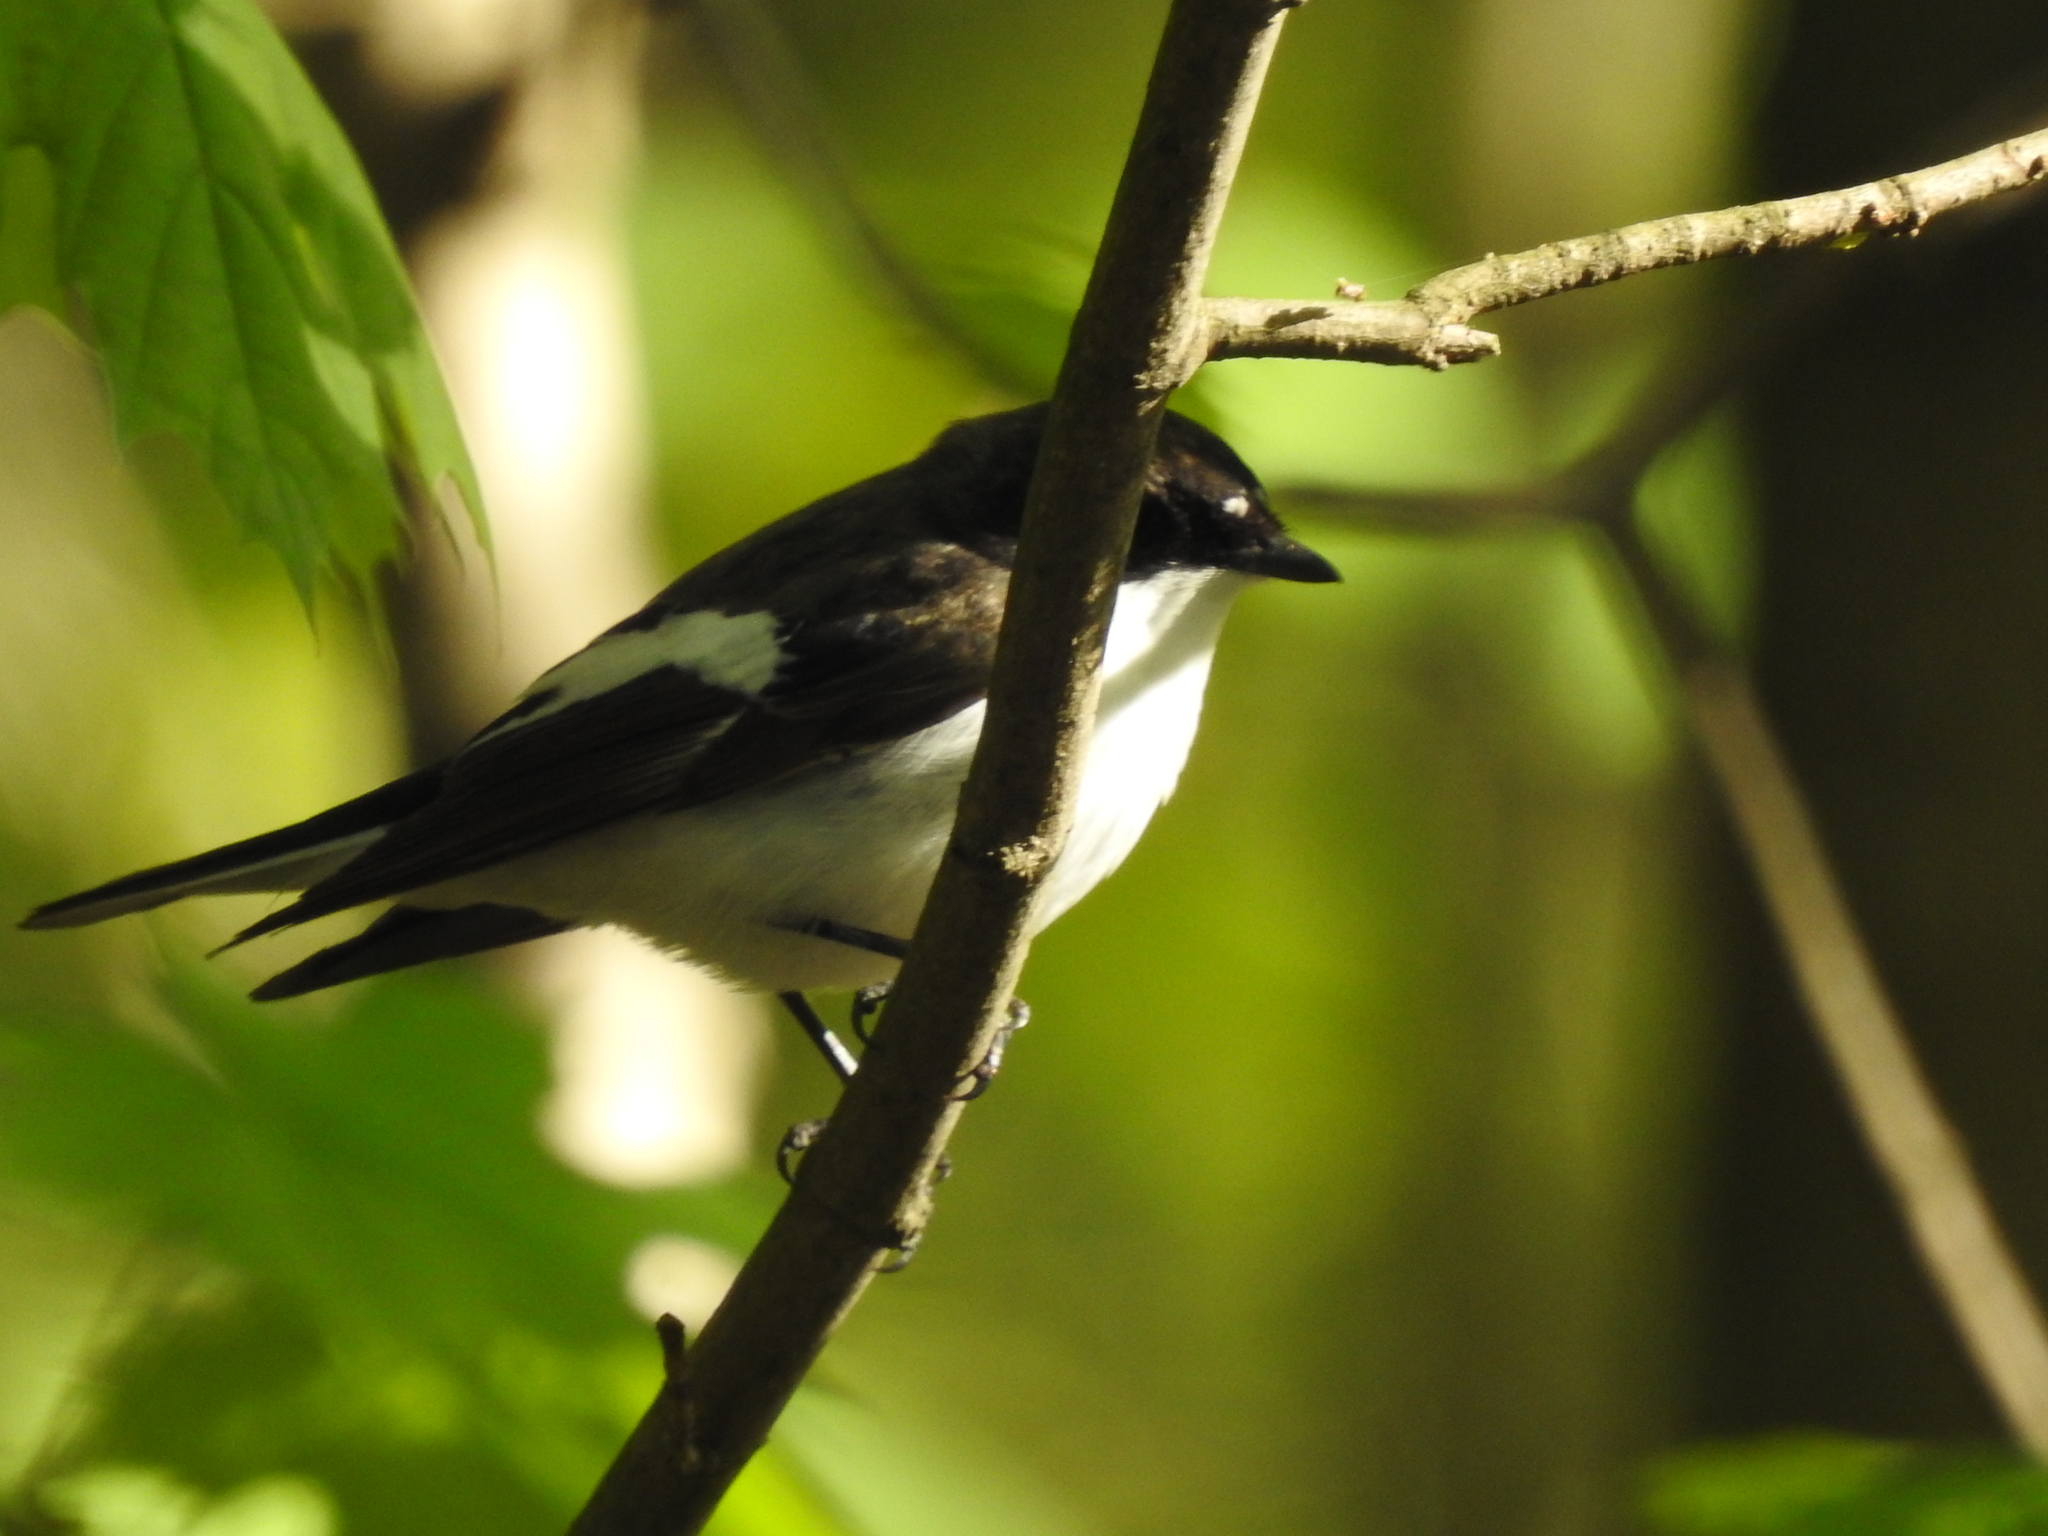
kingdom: Animalia
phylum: Chordata
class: Aves
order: Passeriformes
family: Muscicapidae
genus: Ficedula
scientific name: Ficedula hypoleuca
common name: European pied flycatcher
